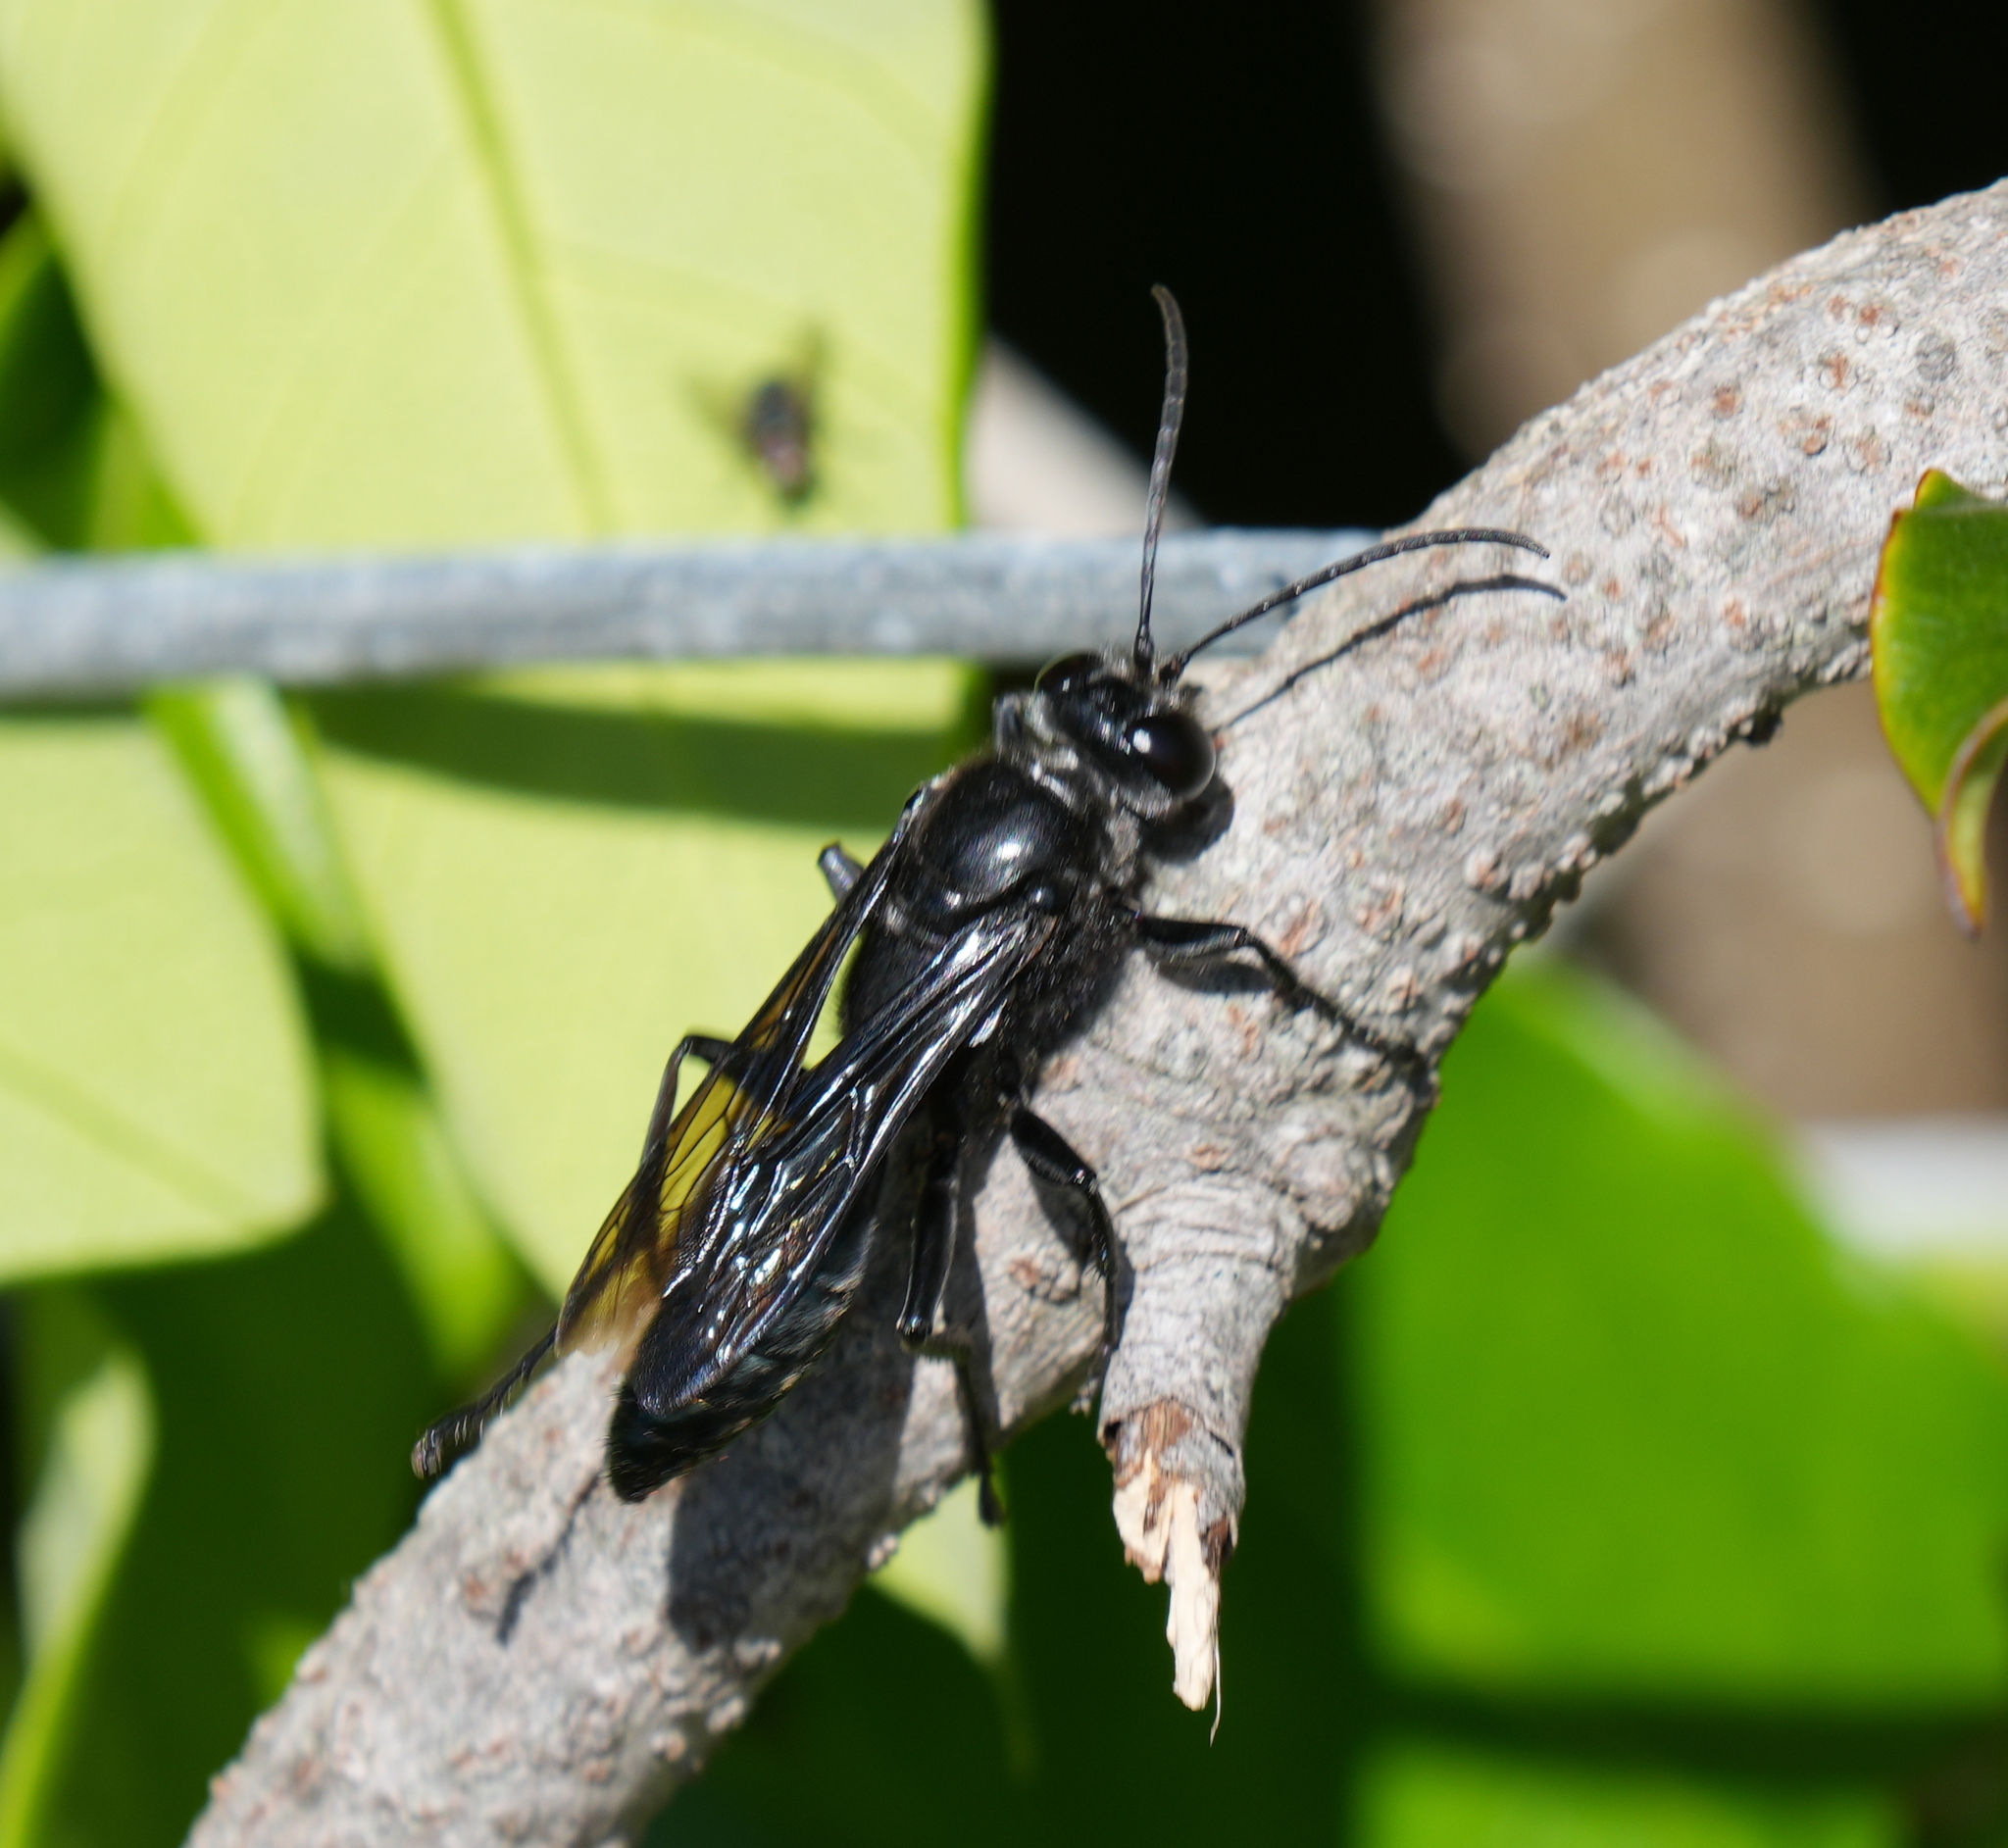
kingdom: Animalia
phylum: Arthropoda
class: Insecta
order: Hymenoptera
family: Sphecidae
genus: Sphex
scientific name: Sphex resplendens
